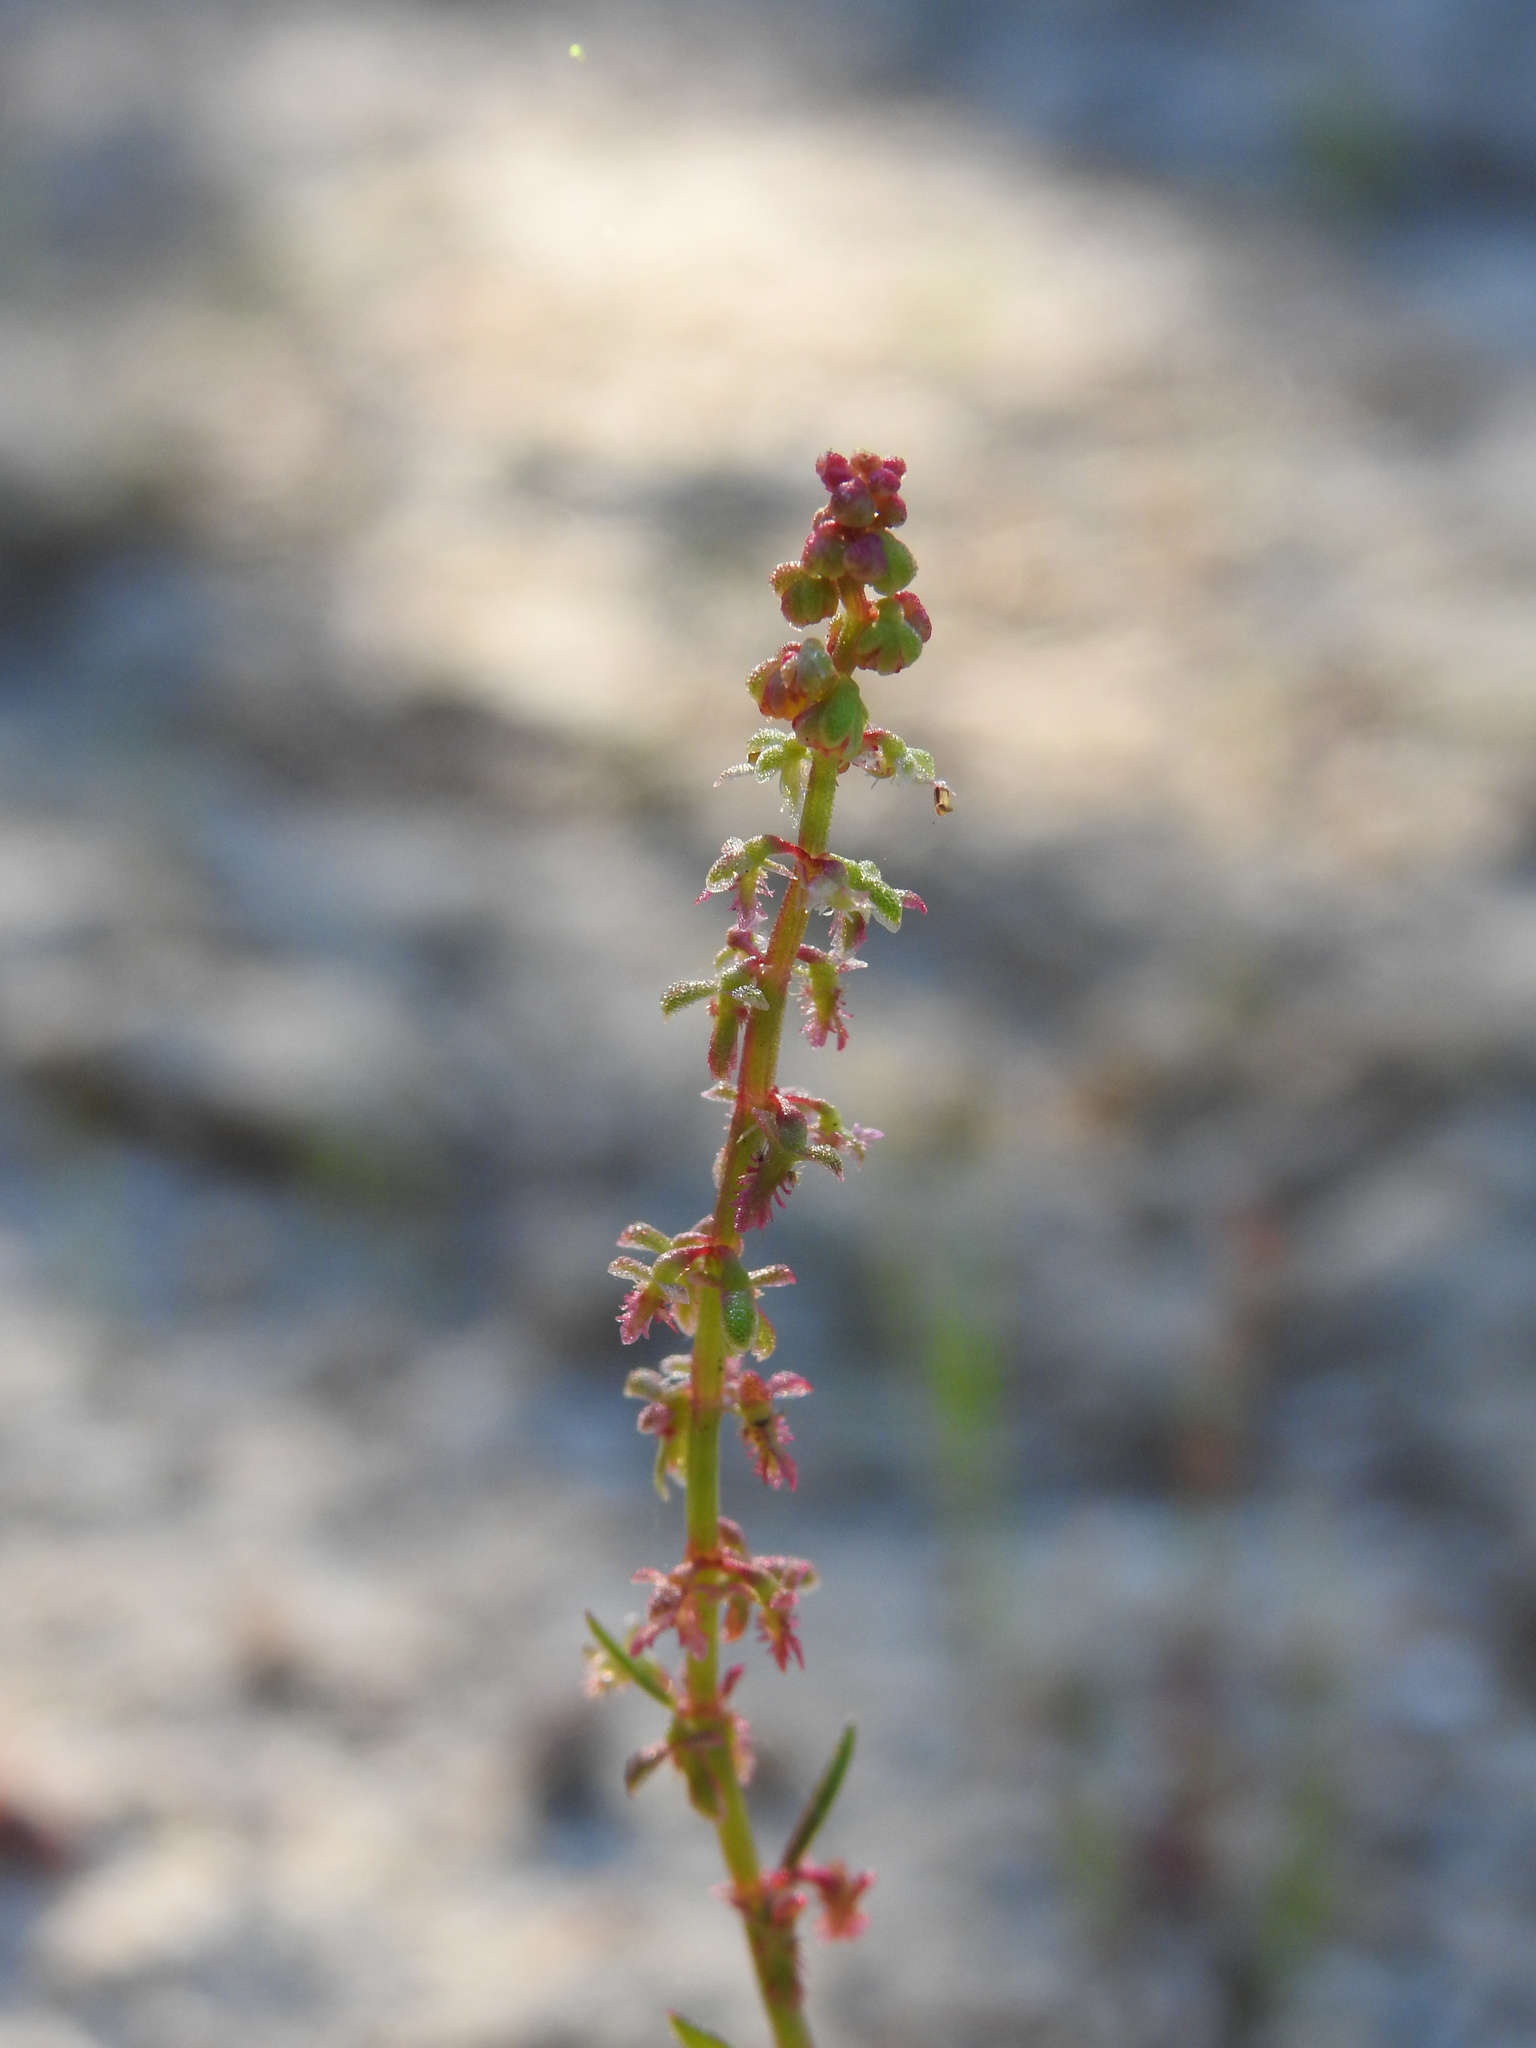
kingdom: Plantae
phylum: Tracheophyta
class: Magnoliopsida
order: Caryophyllales
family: Polygonaceae
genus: Rumex
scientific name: Rumex bucephalophorus
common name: Red dock
